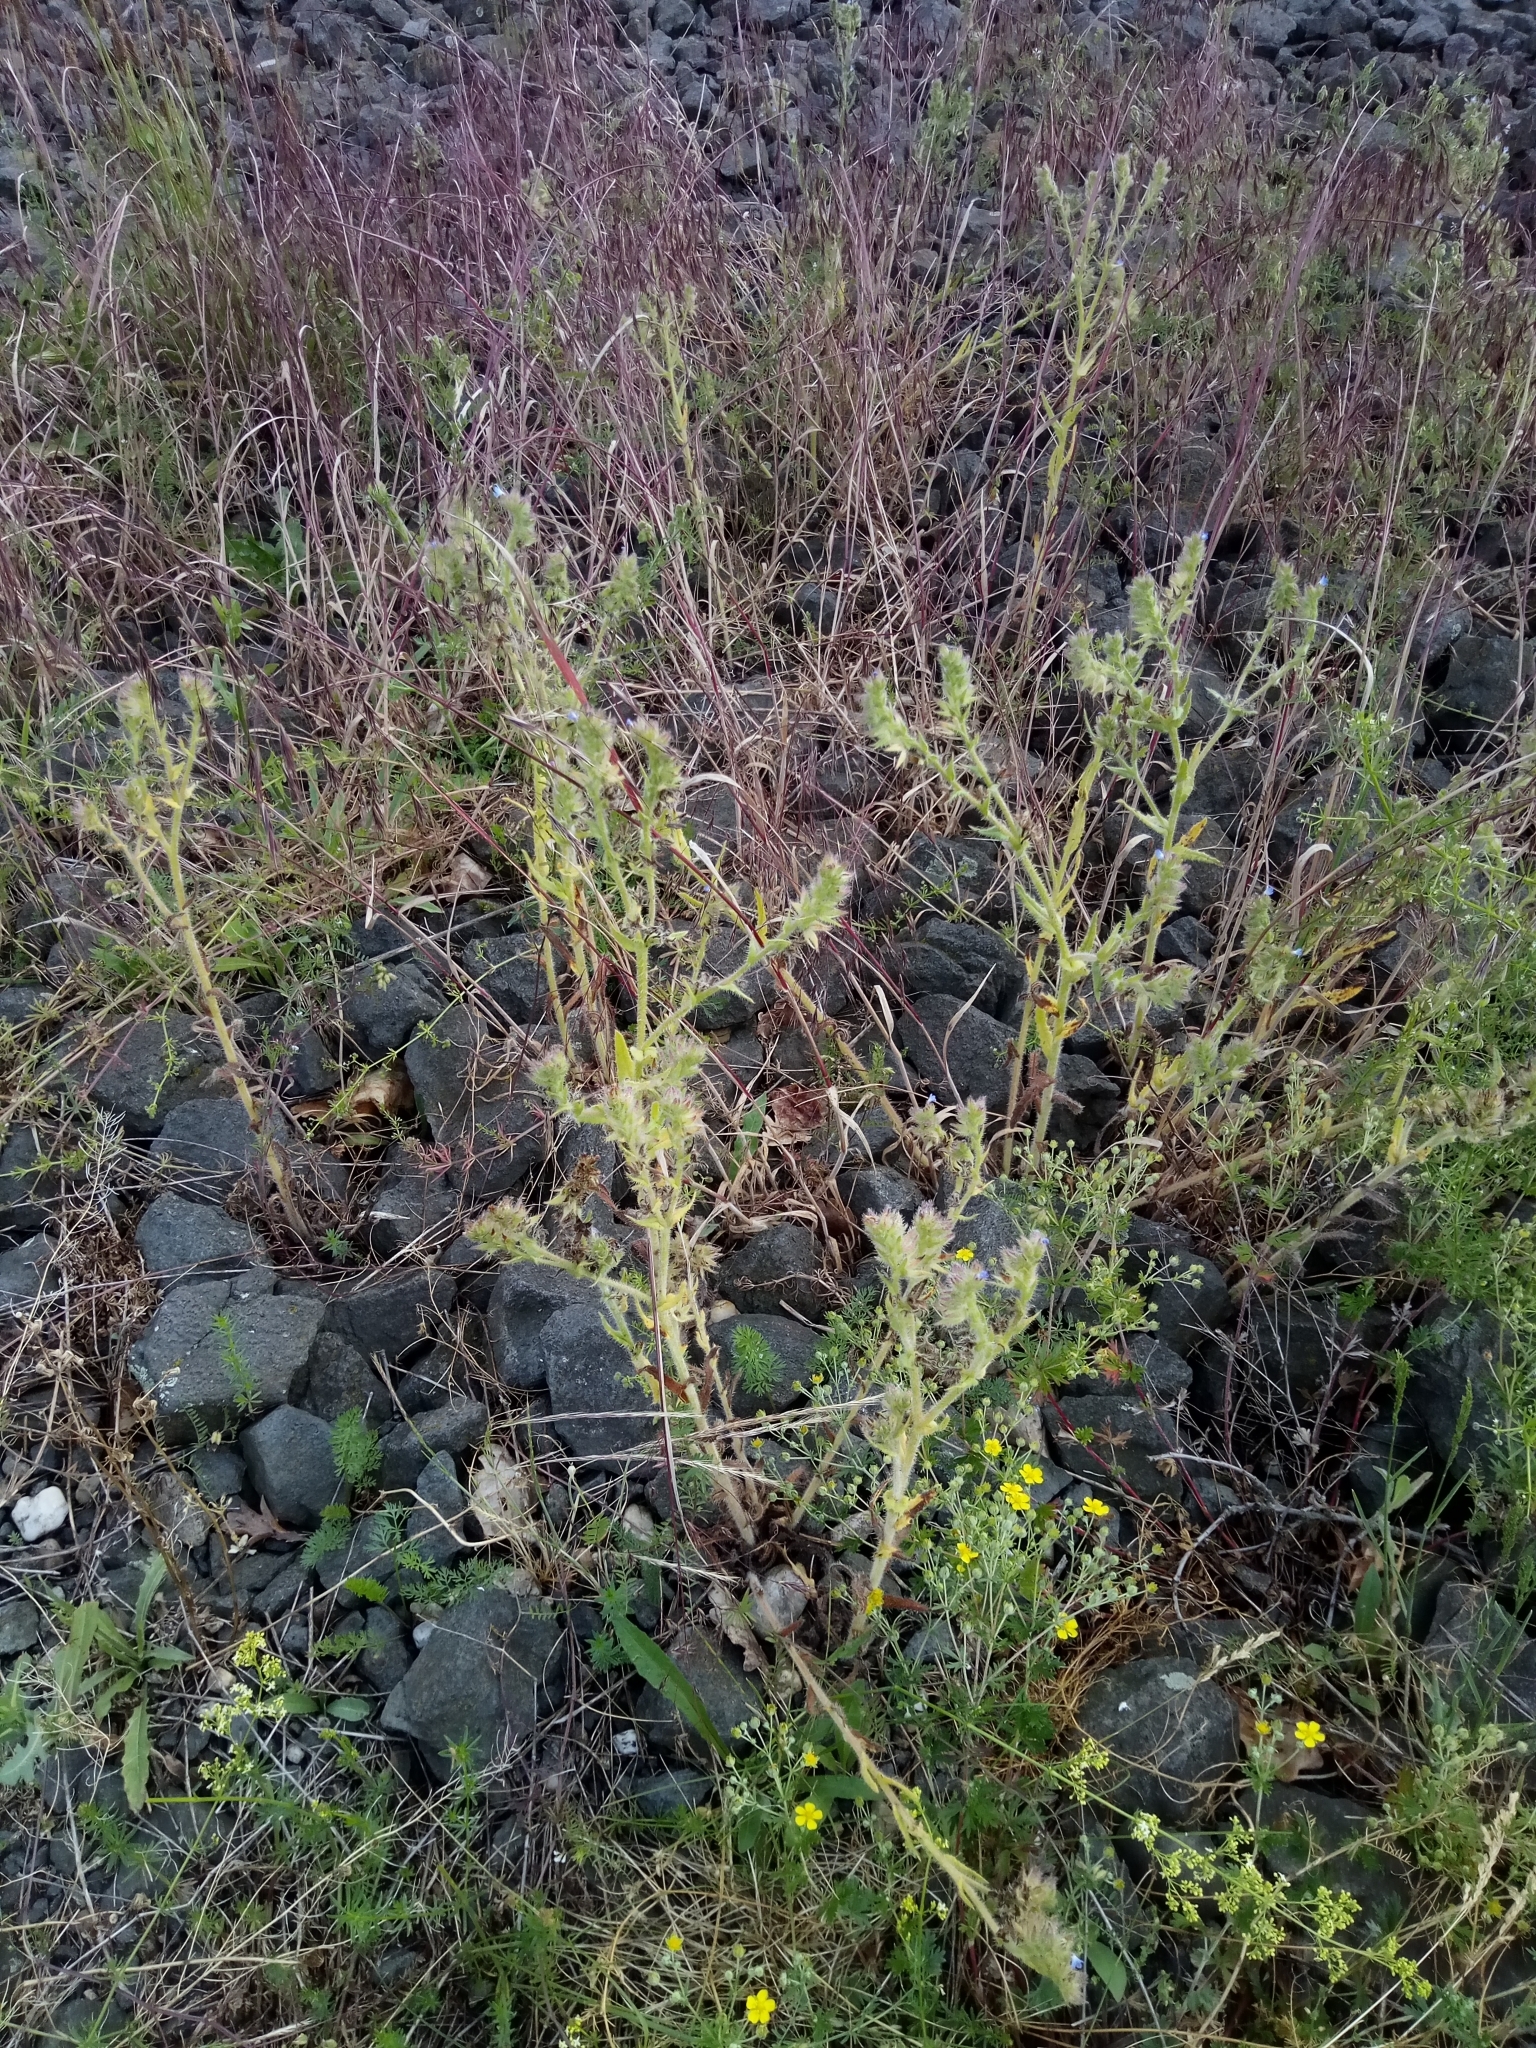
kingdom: Plantae
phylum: Tracheophyta
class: Magnoliopsida
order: Boraginales
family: Boraginaceae
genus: Lycopsis
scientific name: Lycopsis arvensis
